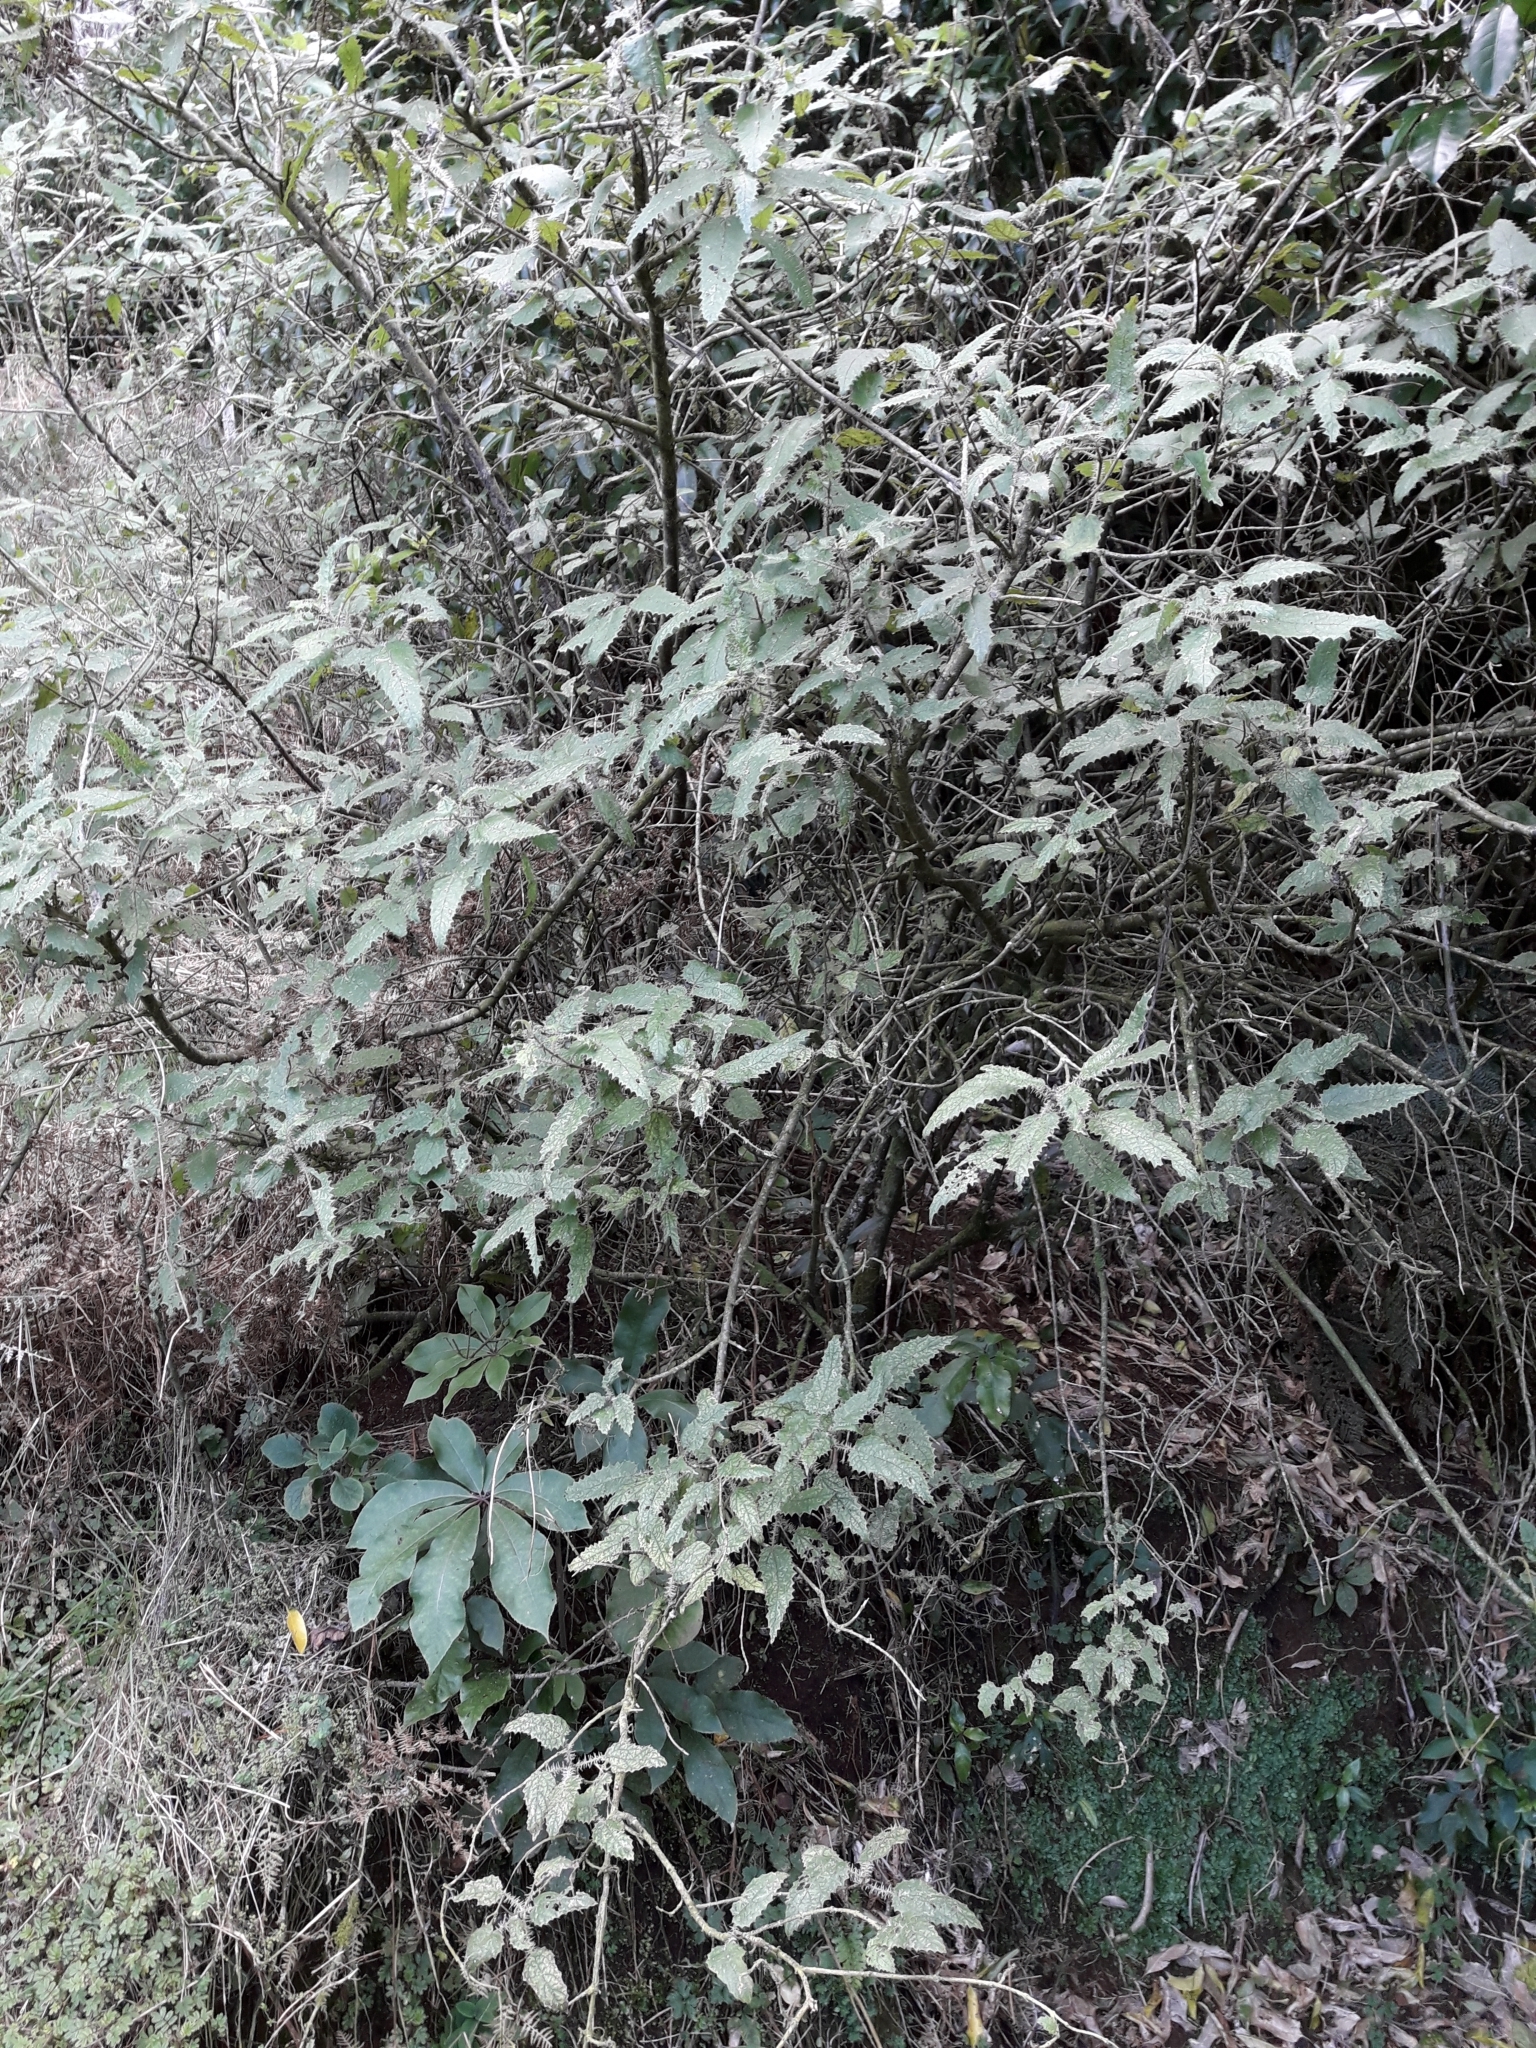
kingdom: Plantae
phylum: Tracheophyta
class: Magnoliopsida
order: Rosales
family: Urticaceae
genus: Urtica
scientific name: Urtica ferox
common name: Tree nettle
